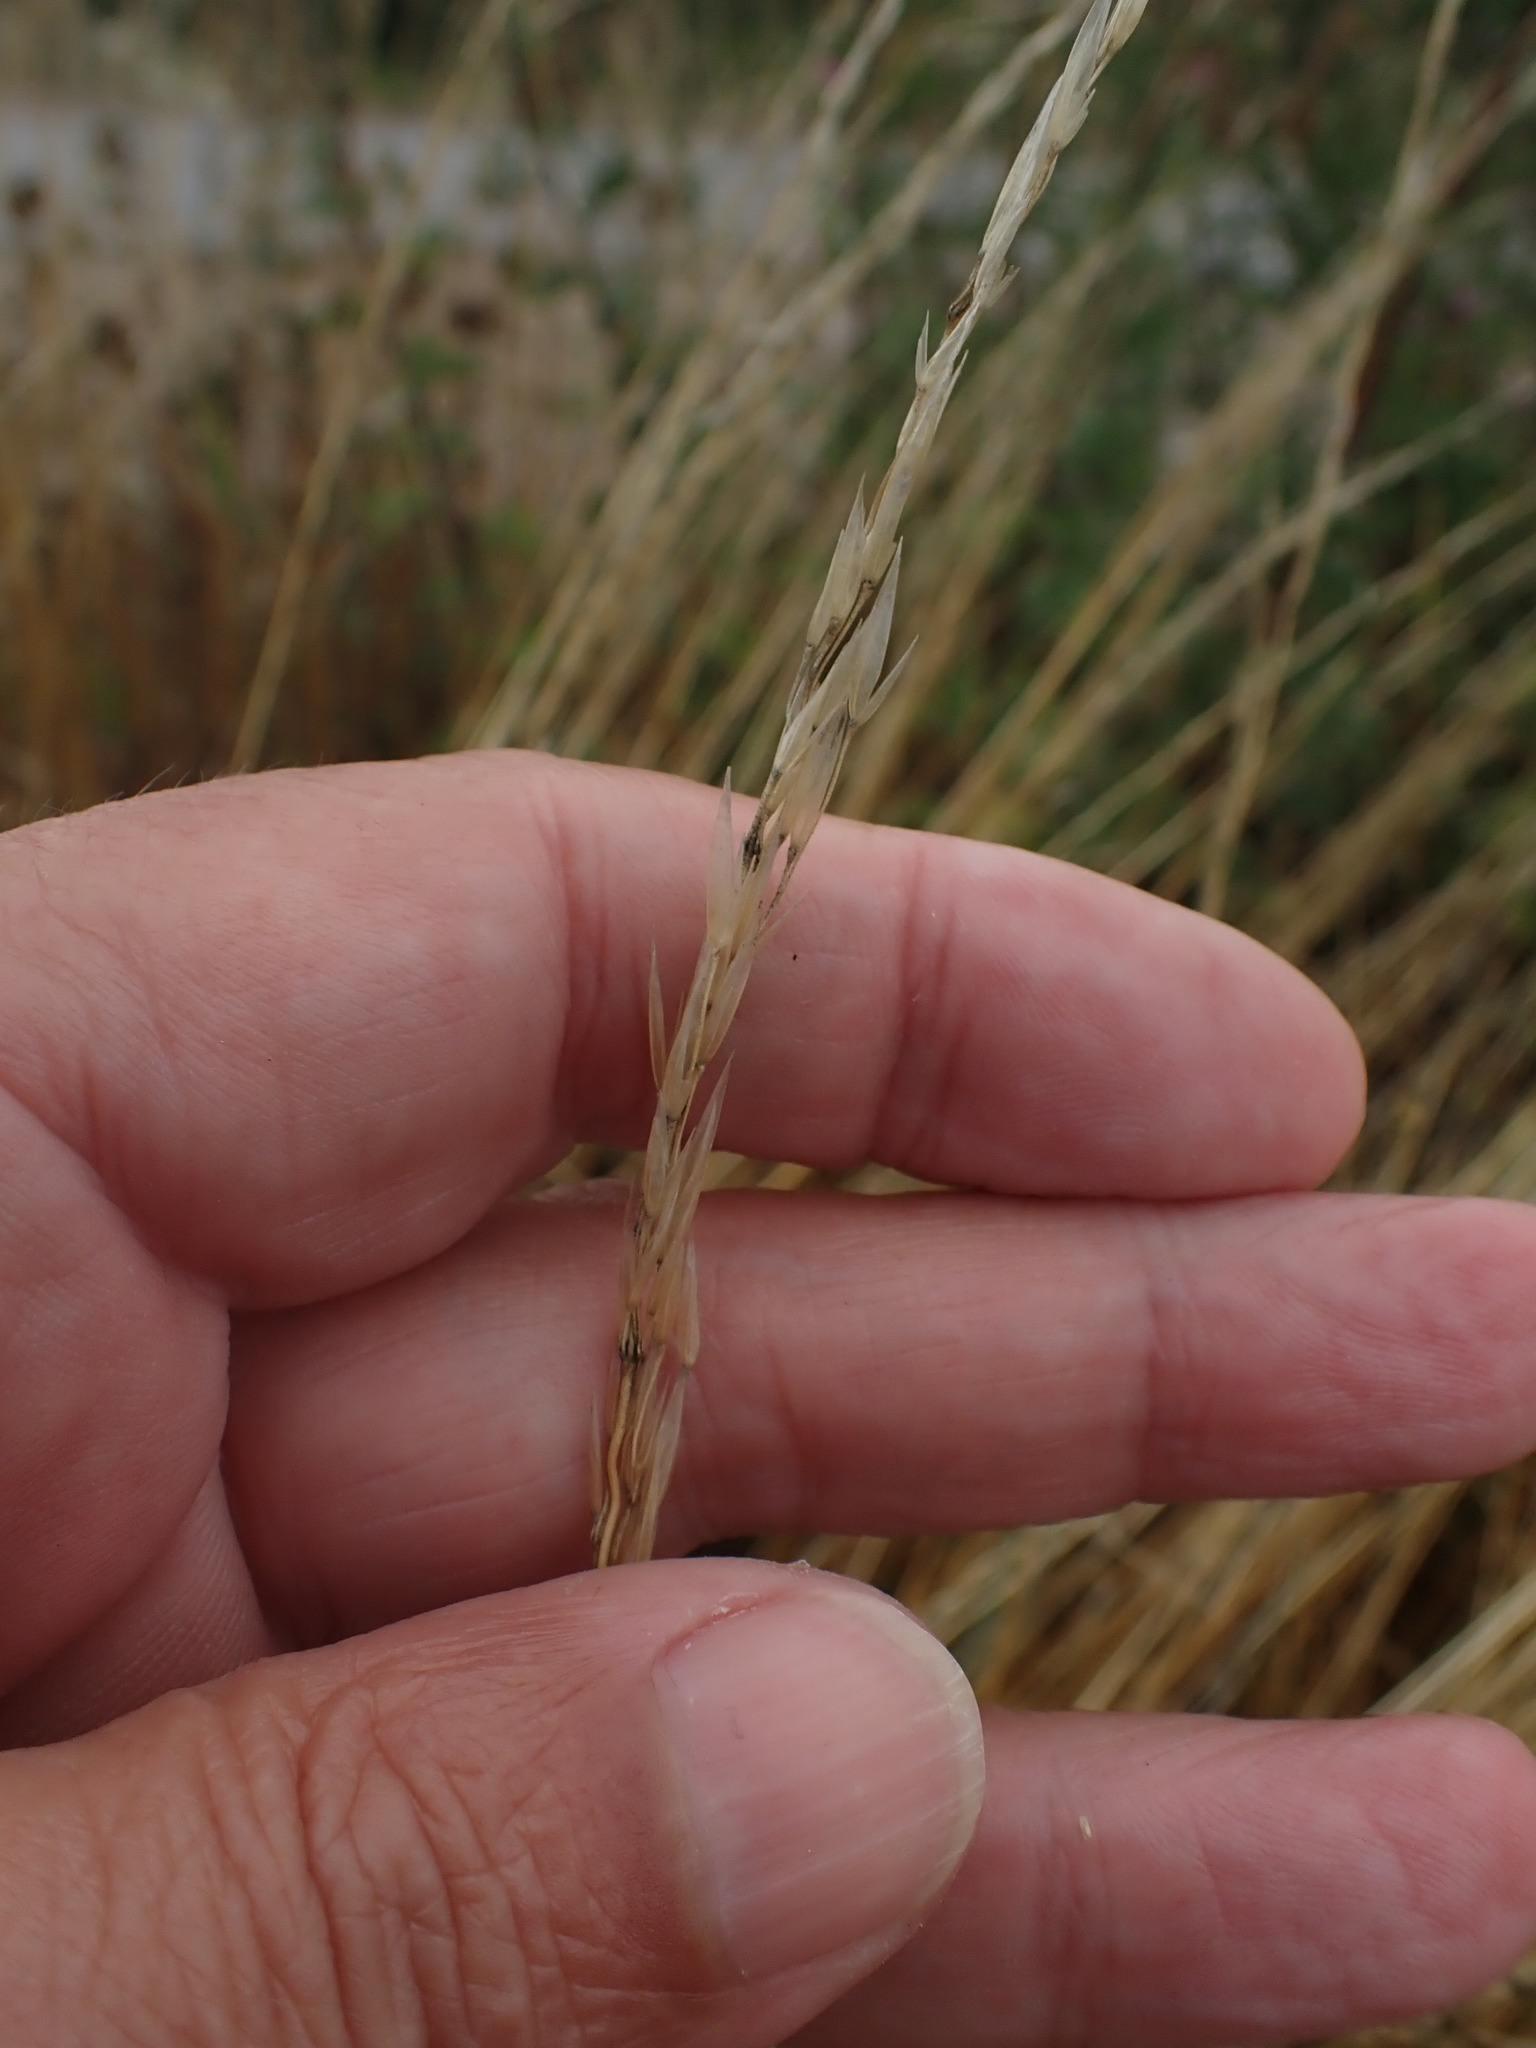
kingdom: Plantae
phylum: Tracheophyta
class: Liliopsida
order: Poales
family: Poaceae
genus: Arrhenatherum
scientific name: Arrhenatherum elatius
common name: Tall oatgrass
